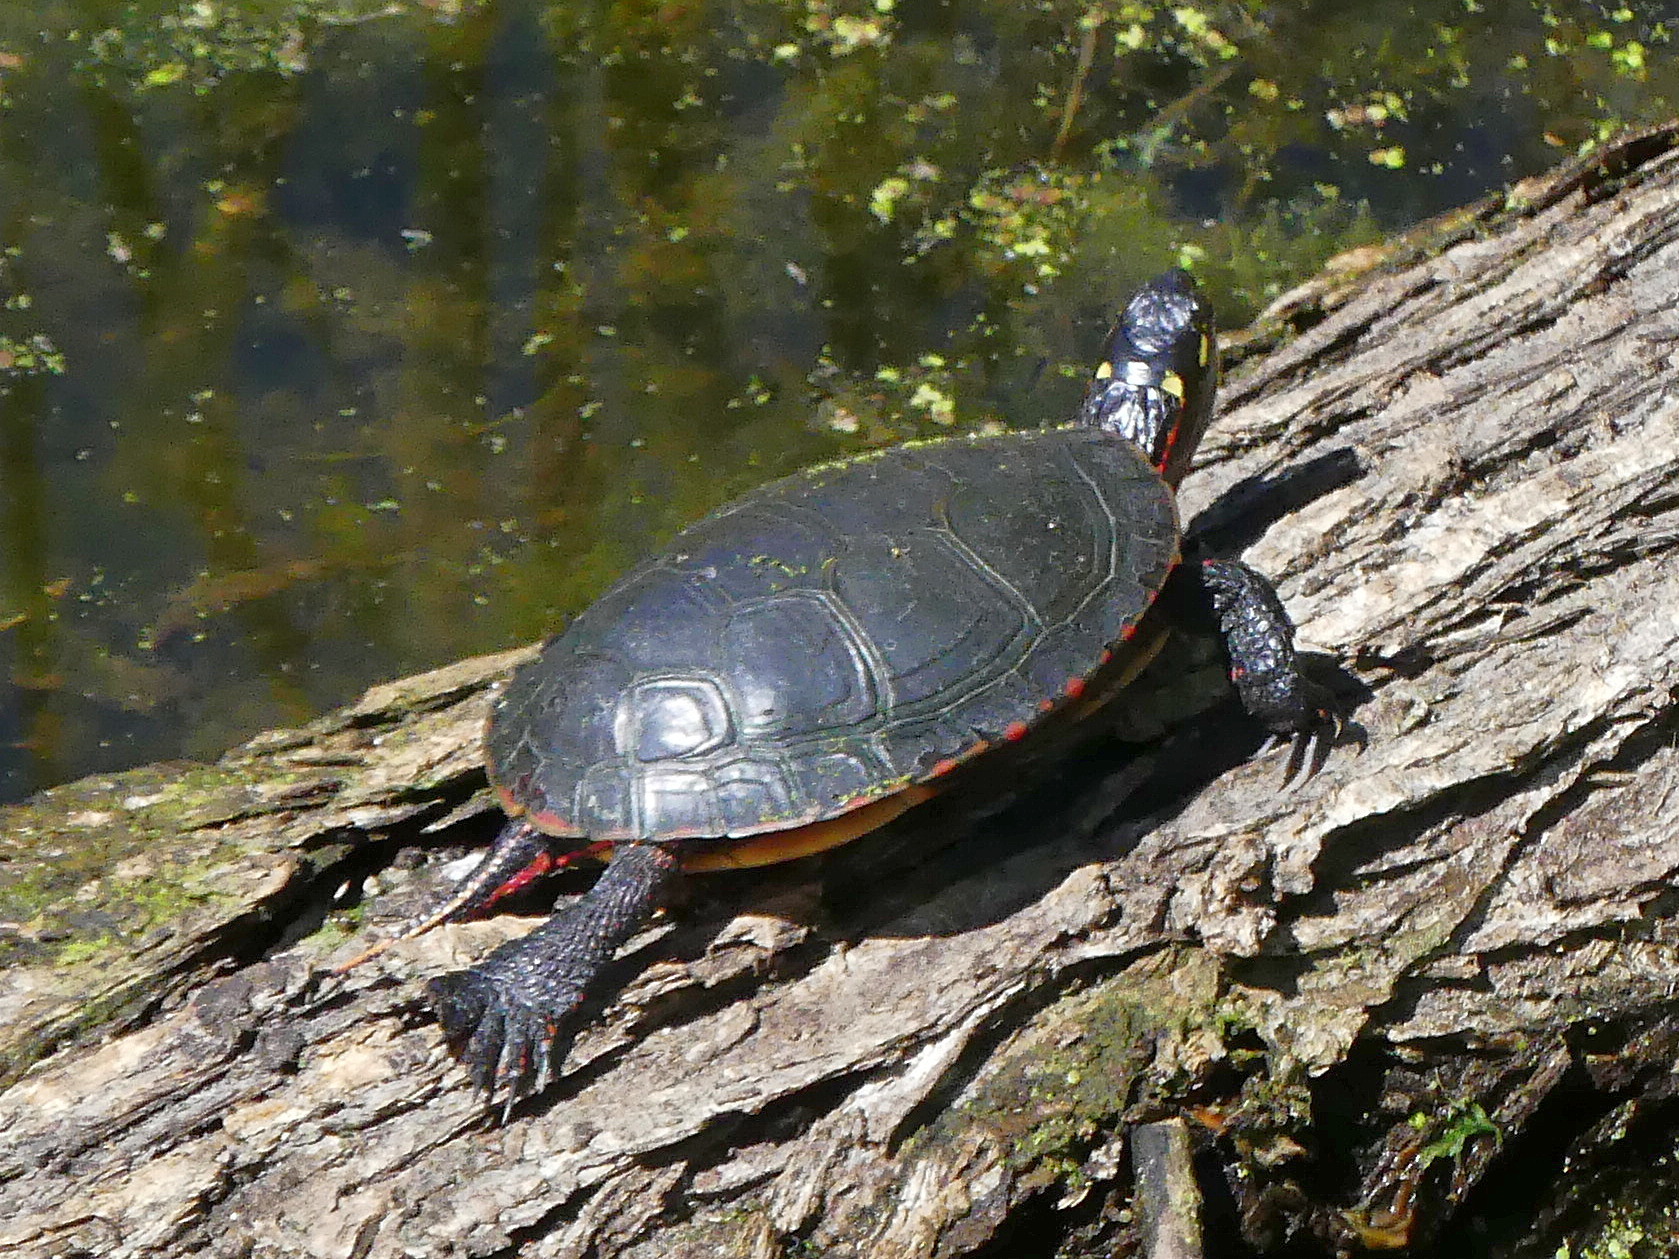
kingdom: Animalia
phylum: Chordata
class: Testudines
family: Emydidae
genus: Chrysemys
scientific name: Chrysemys picta
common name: Painted turtle
